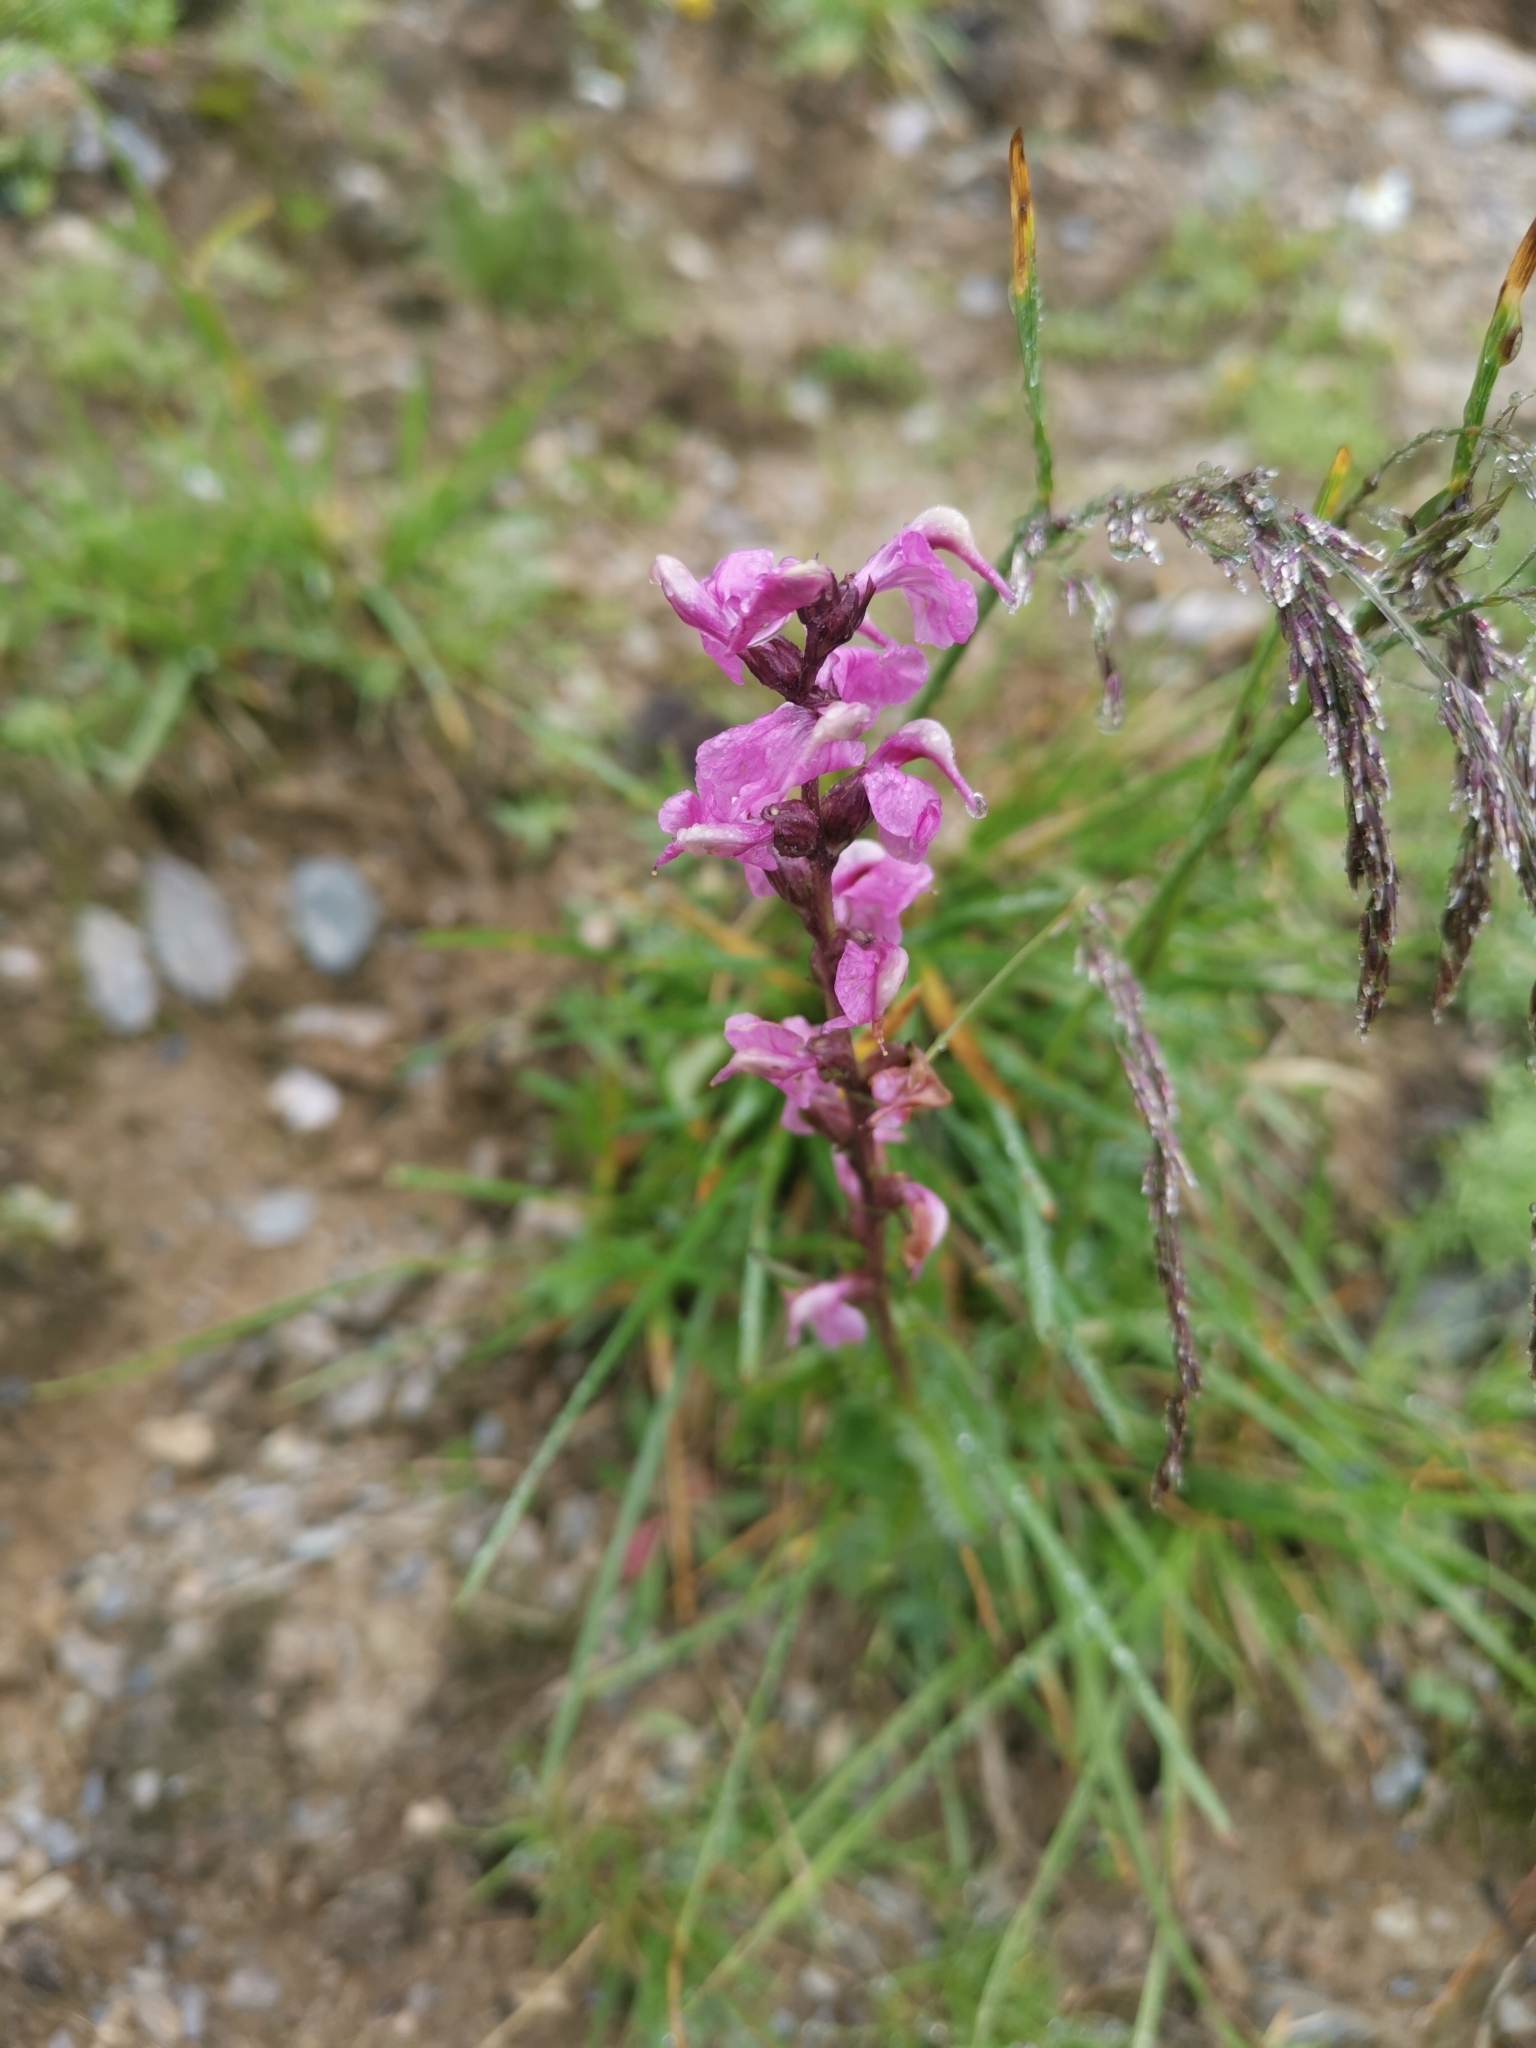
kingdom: Plantae
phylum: Tracheophyta
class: Magnoliopsida
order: Lamiales
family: Orobanchaceae
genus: Pedicularis
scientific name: Pedicularis rostratospicata
